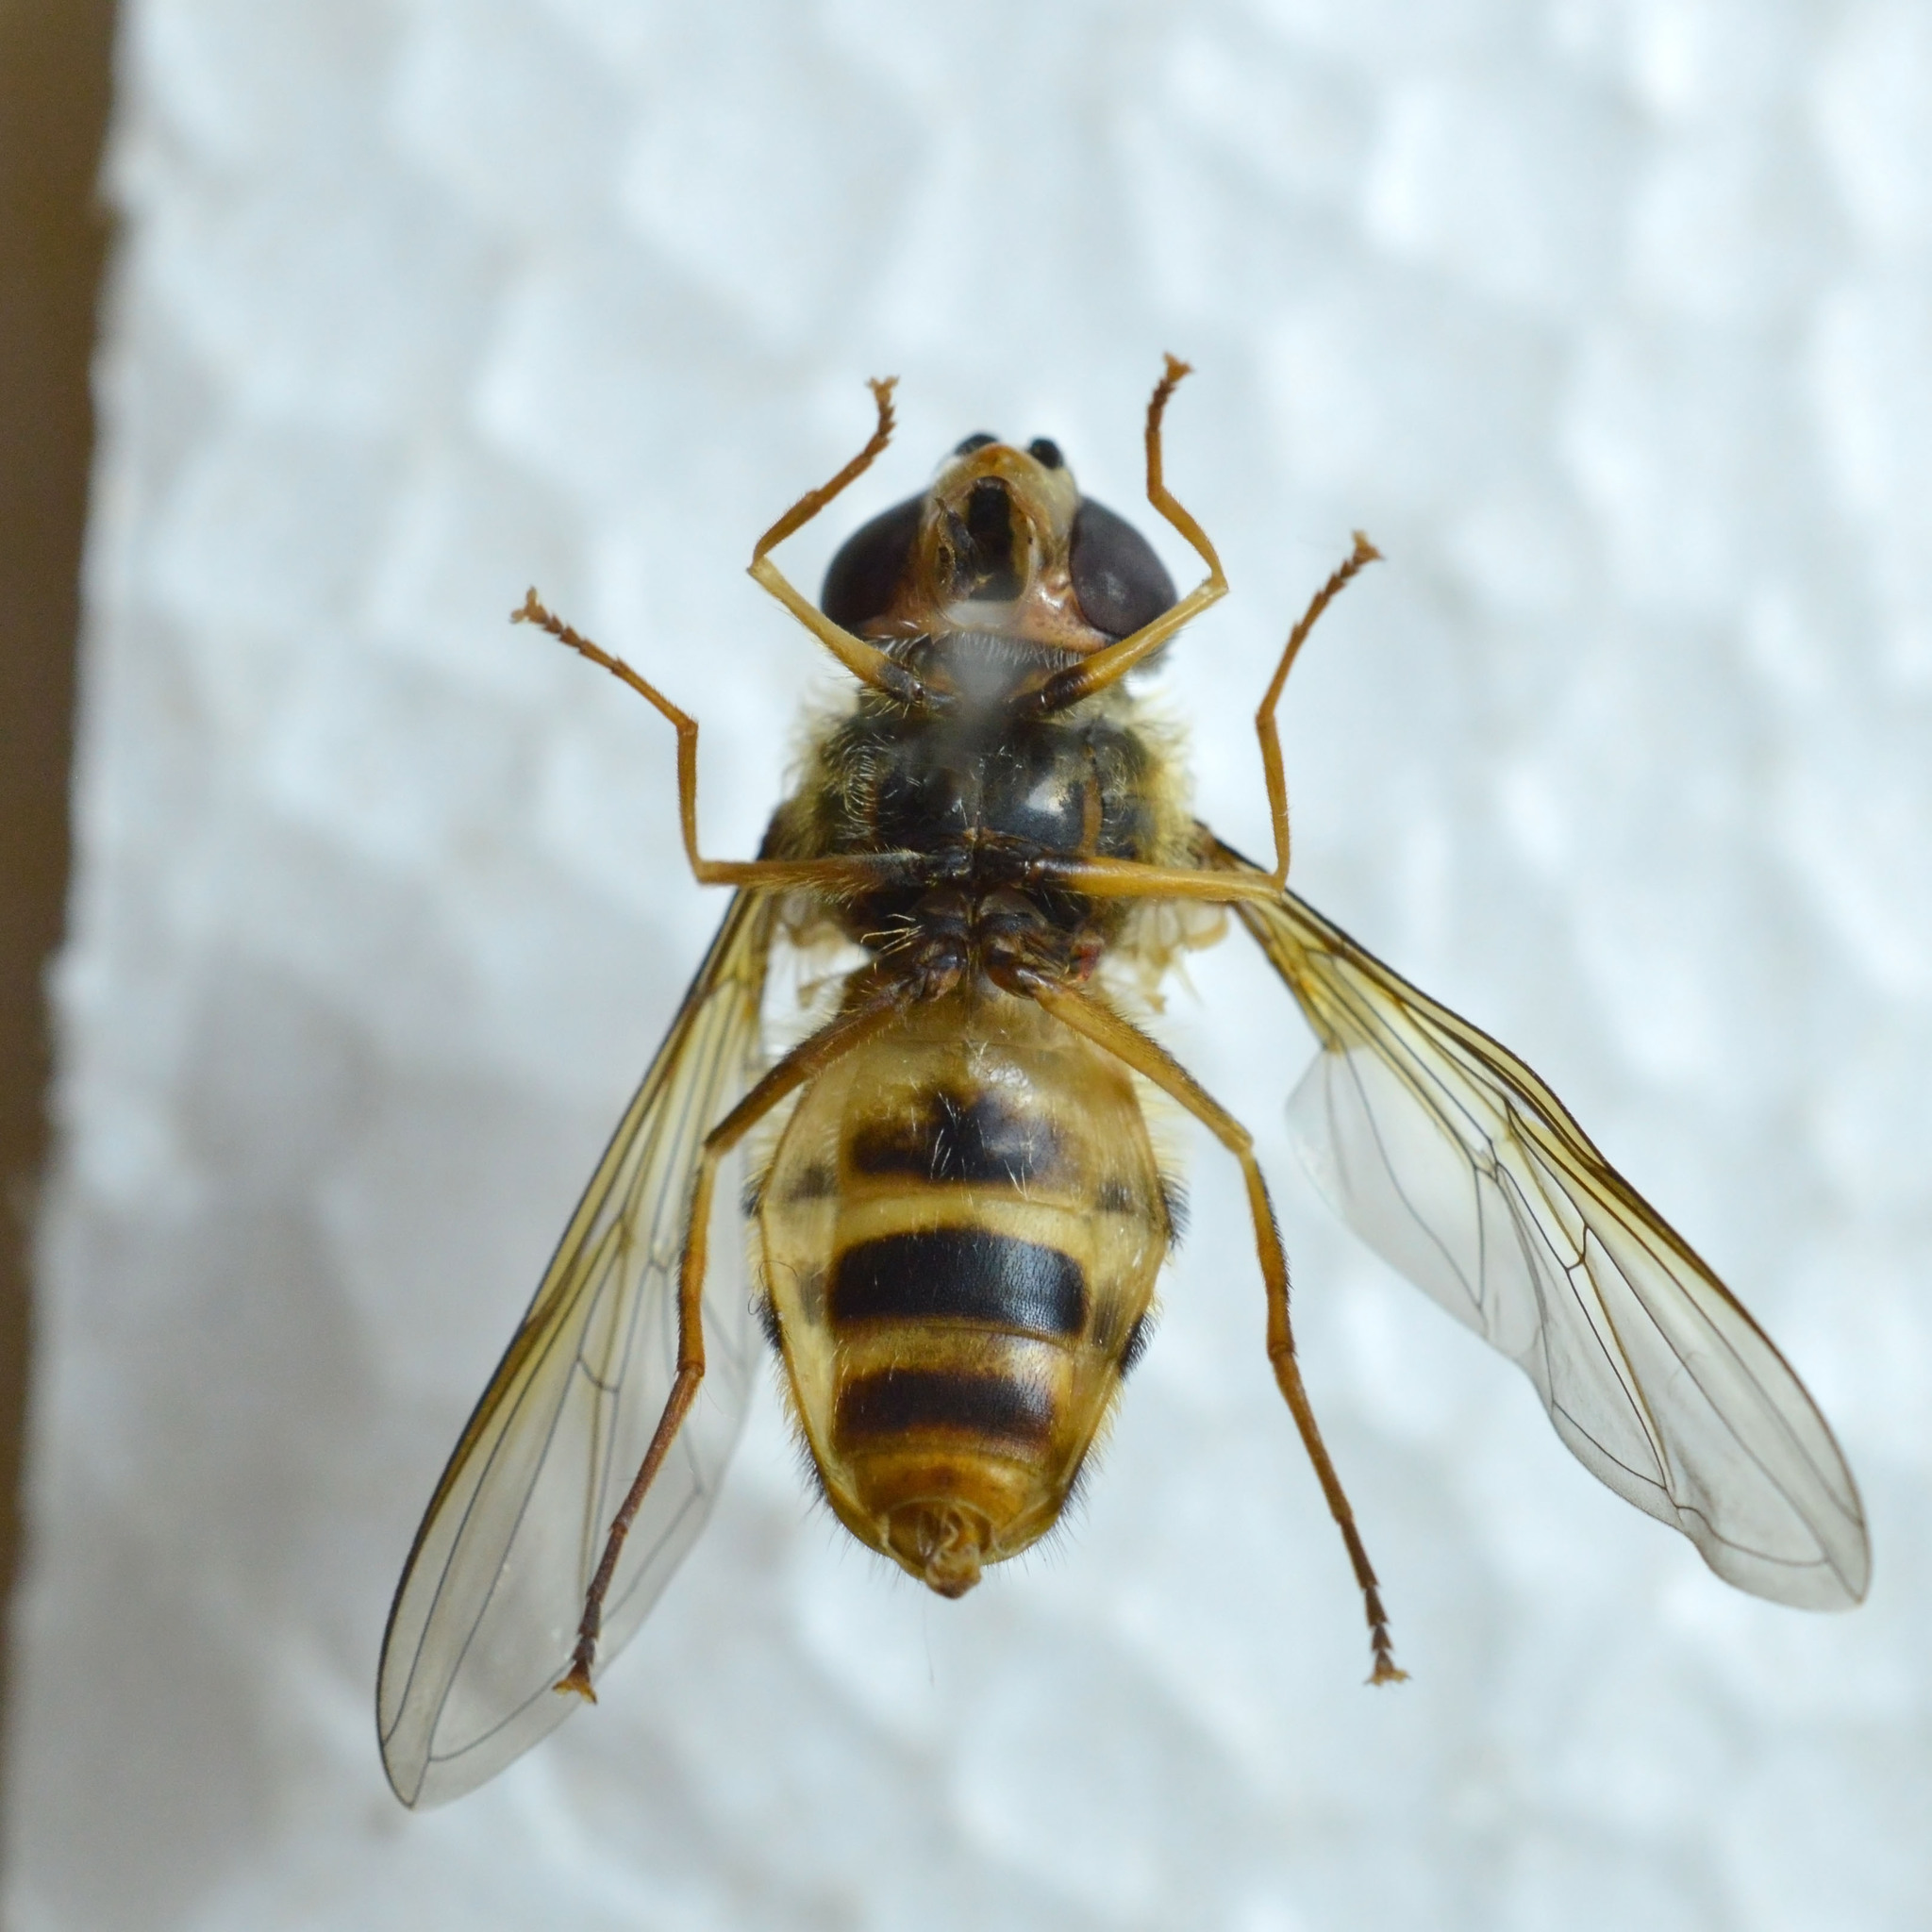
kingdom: Animalia
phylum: Arthropoda
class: Insecta
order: Diptera
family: Syrphidae
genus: Epistrophe
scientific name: Epistrophe grossulariae
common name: Black-horned smoothtail
